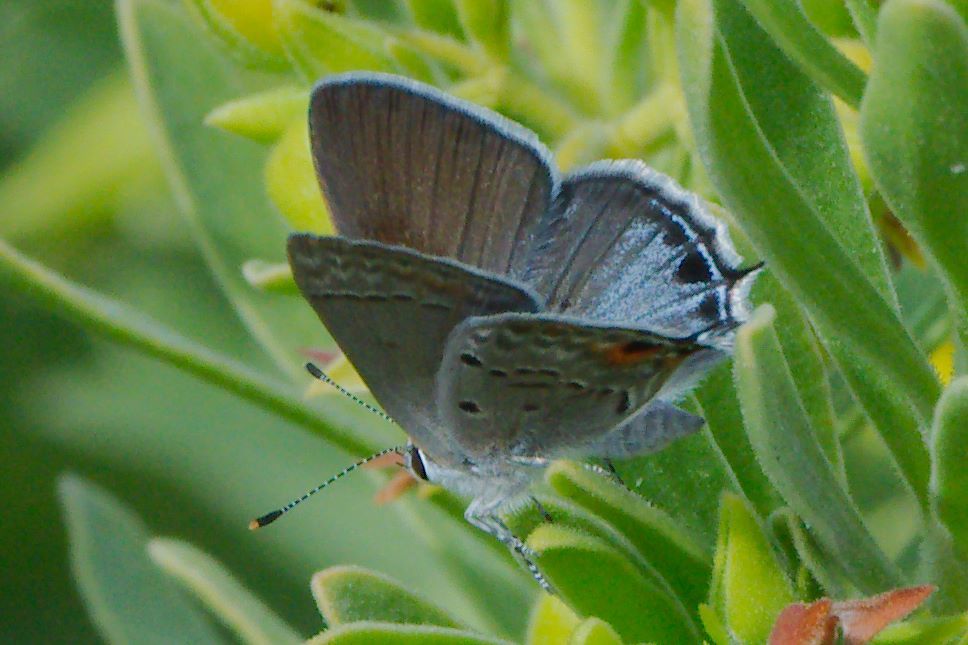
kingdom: Animalia
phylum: Arthropoda
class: Insecta
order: Lepidoptera
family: Lycaenidae
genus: Callicista
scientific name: Callicista columella
